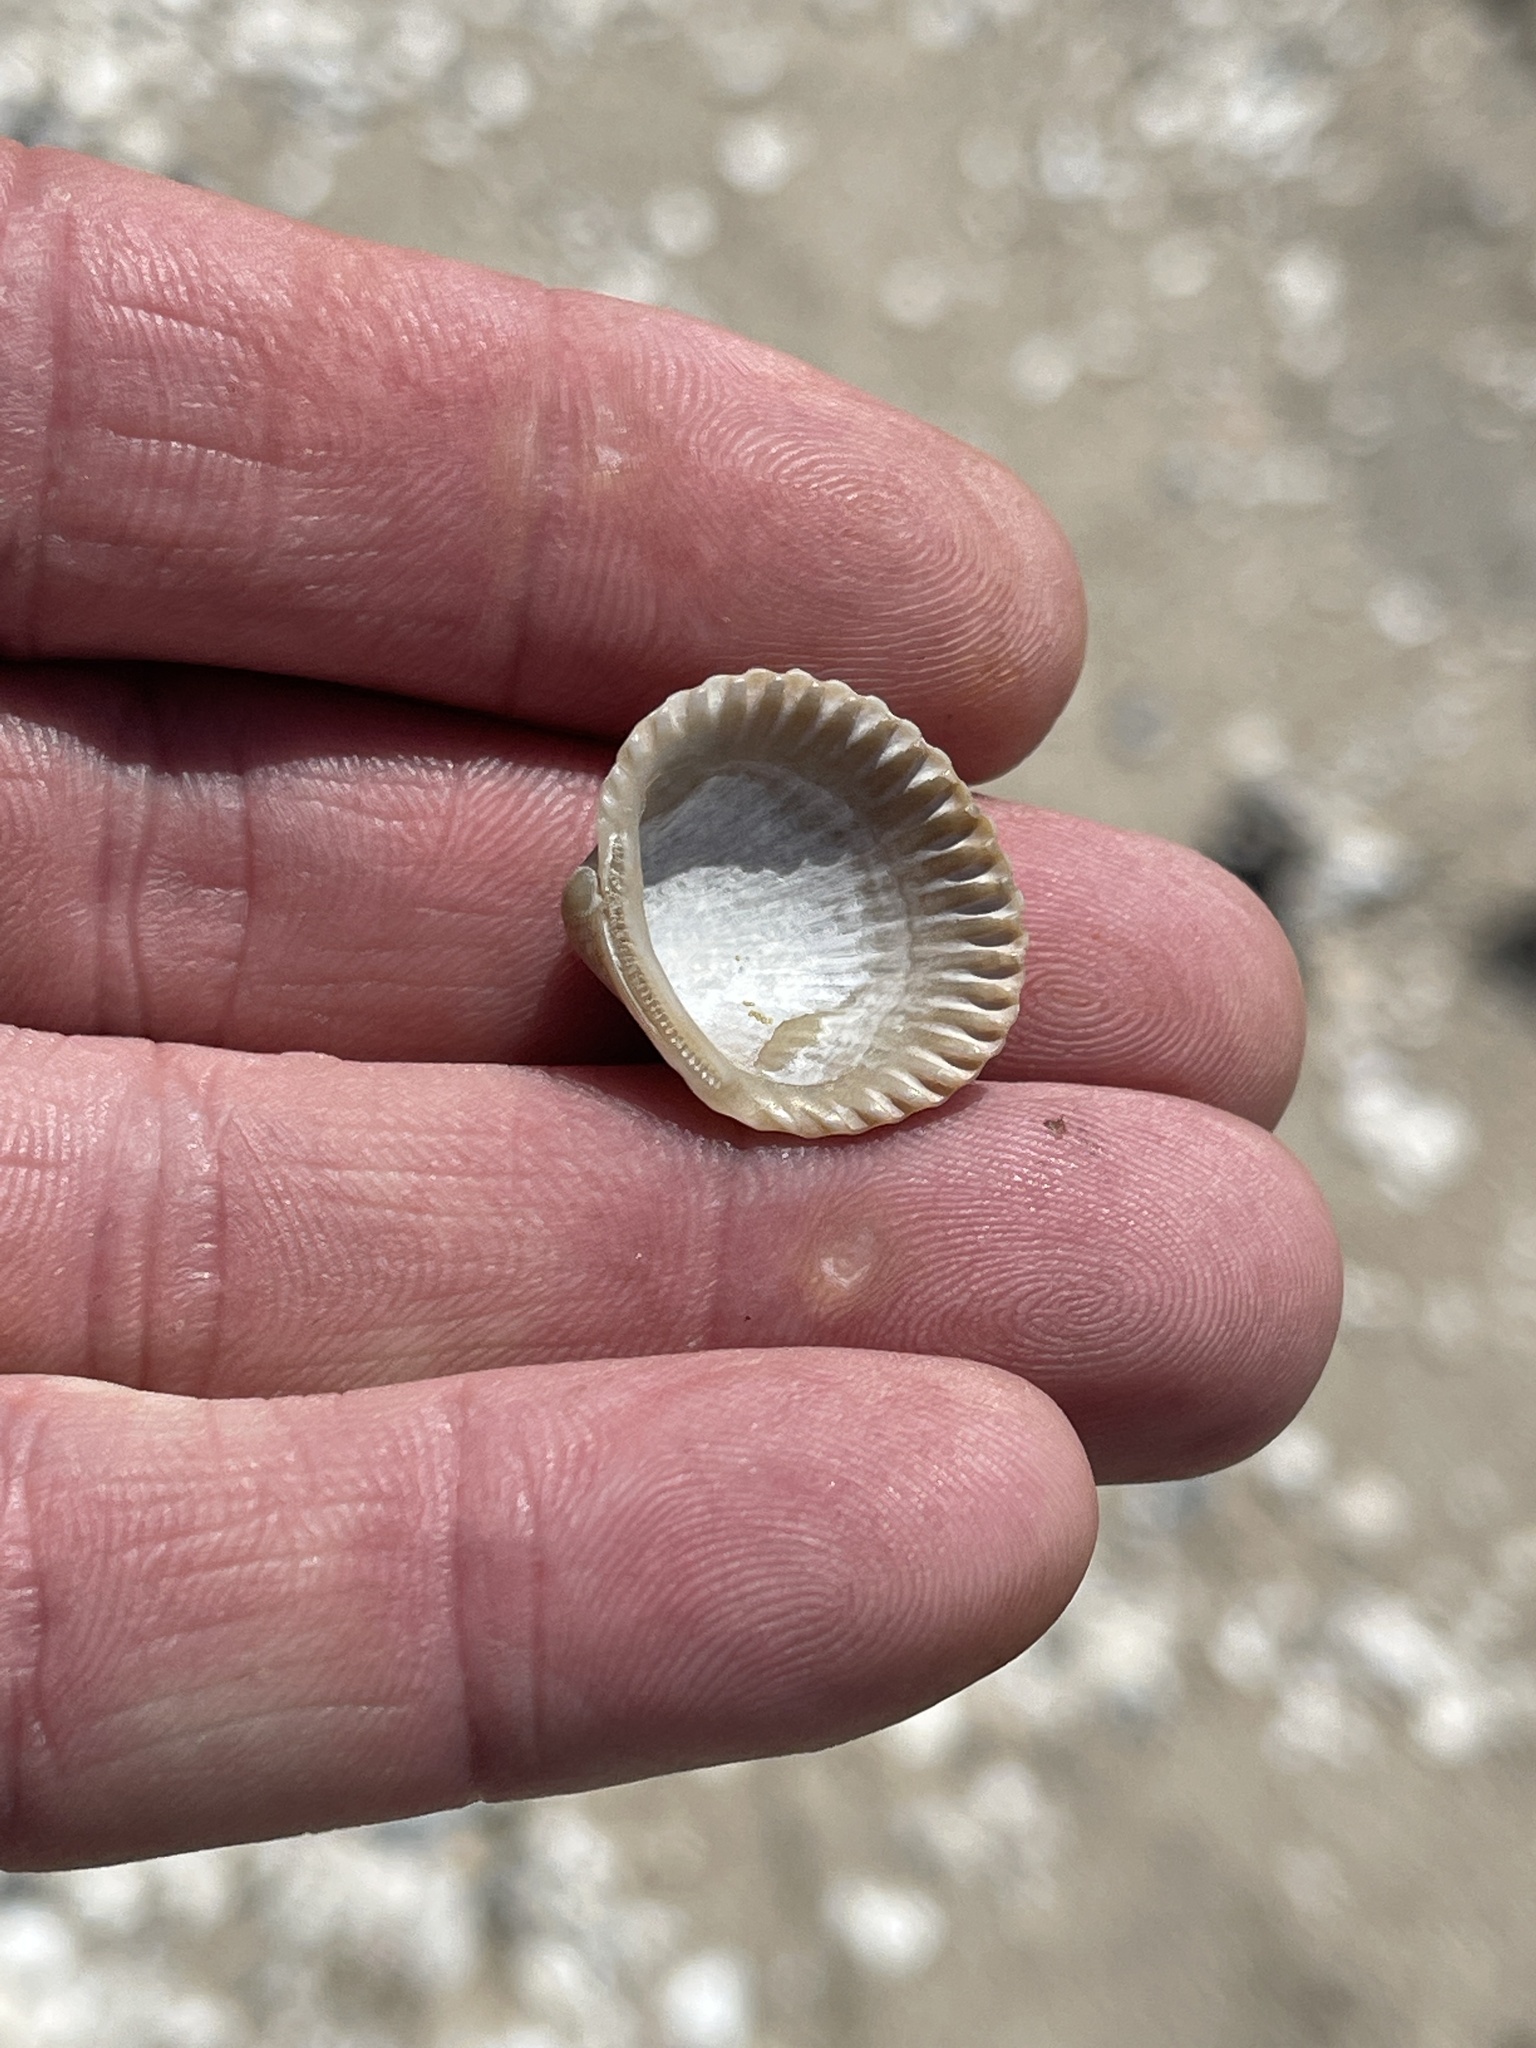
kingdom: Animalia
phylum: Mollusca
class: Bivalvia
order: Arcida
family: Arcidae
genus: Lunarca
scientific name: Lunarca ovalis
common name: Blood ark
